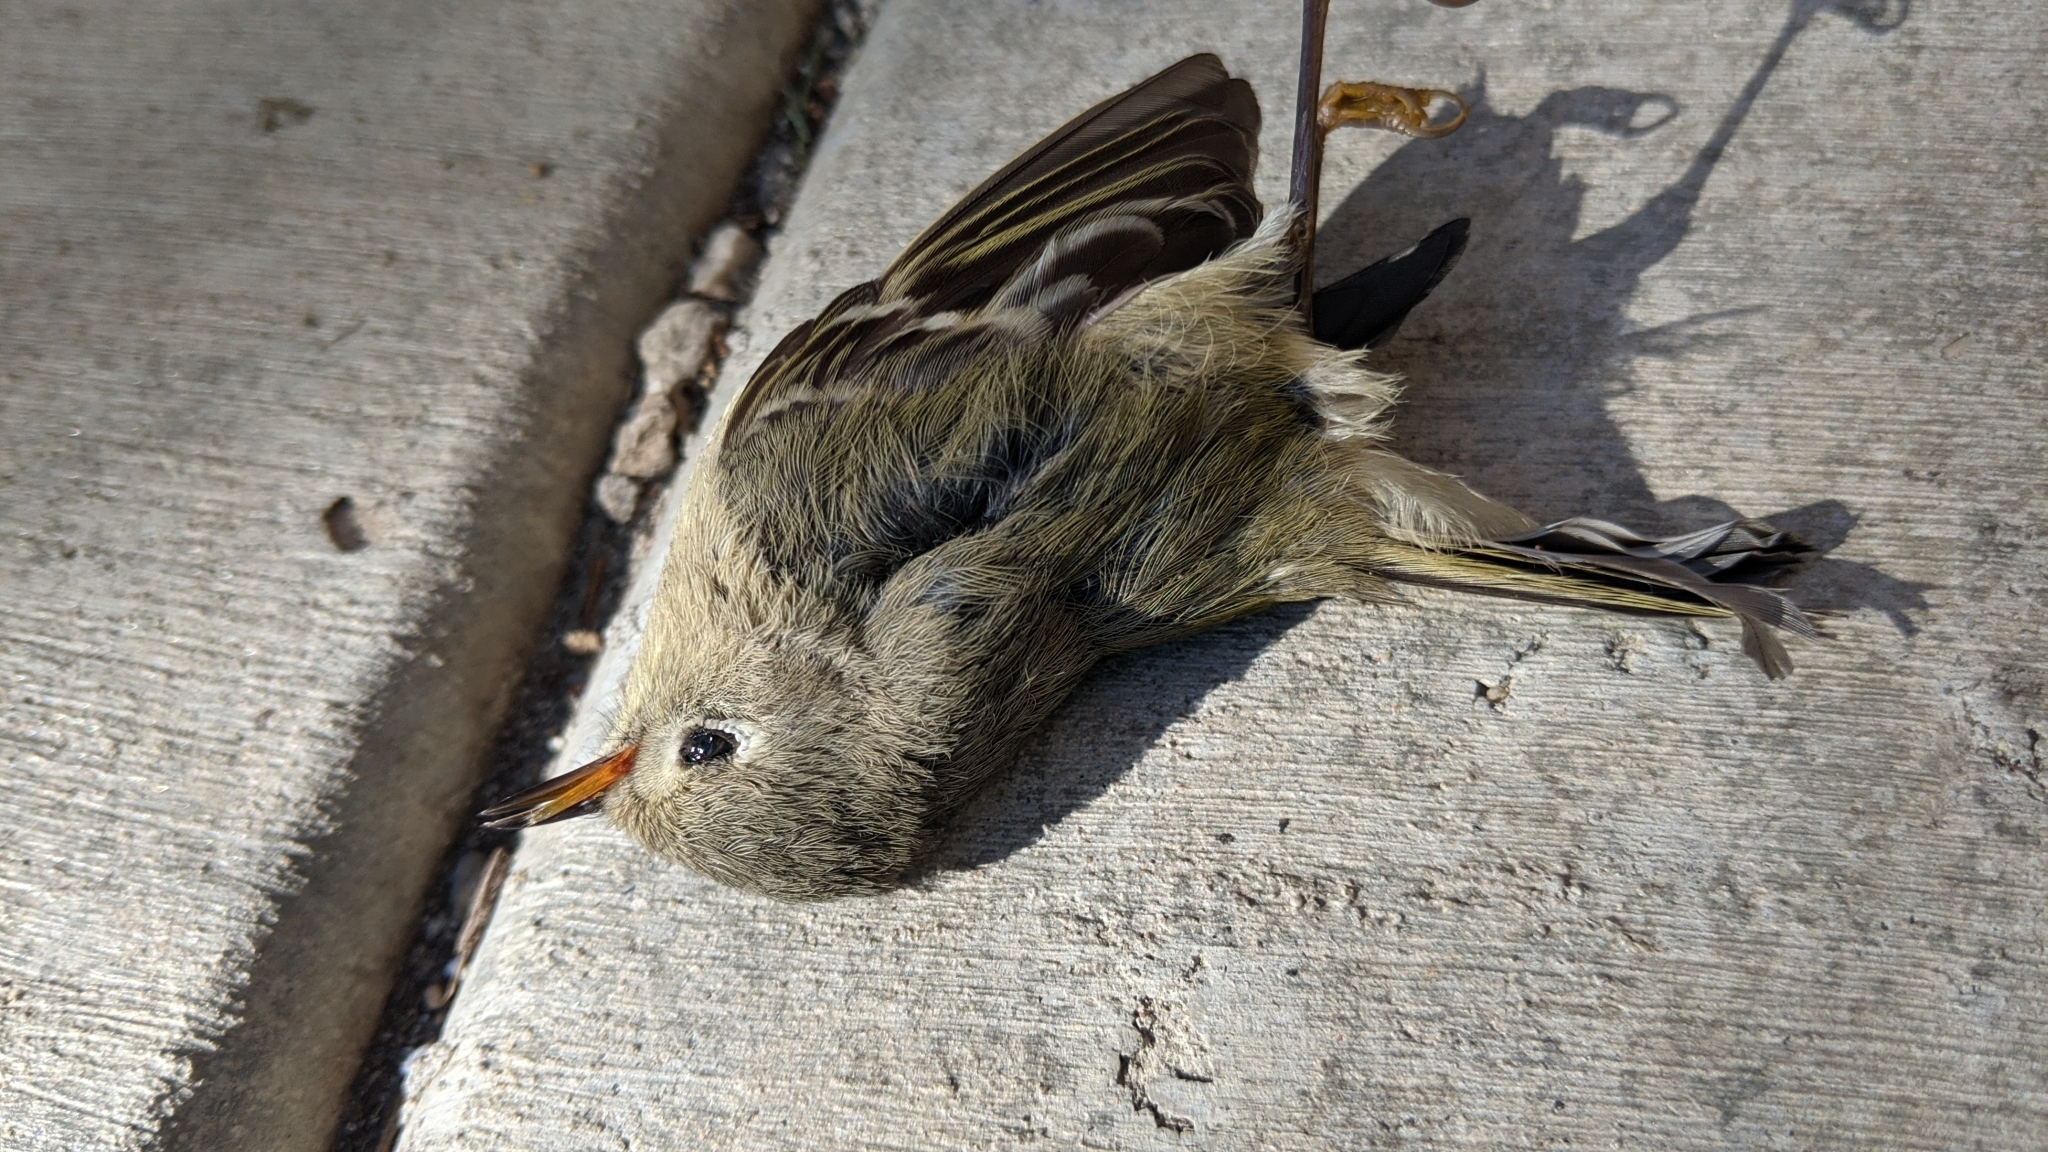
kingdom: Animalia
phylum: Chordata
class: Aves
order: Passeriformes
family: Regulidae
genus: Regulus
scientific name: Regulus calendula
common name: Ruby-crowned kinglet
